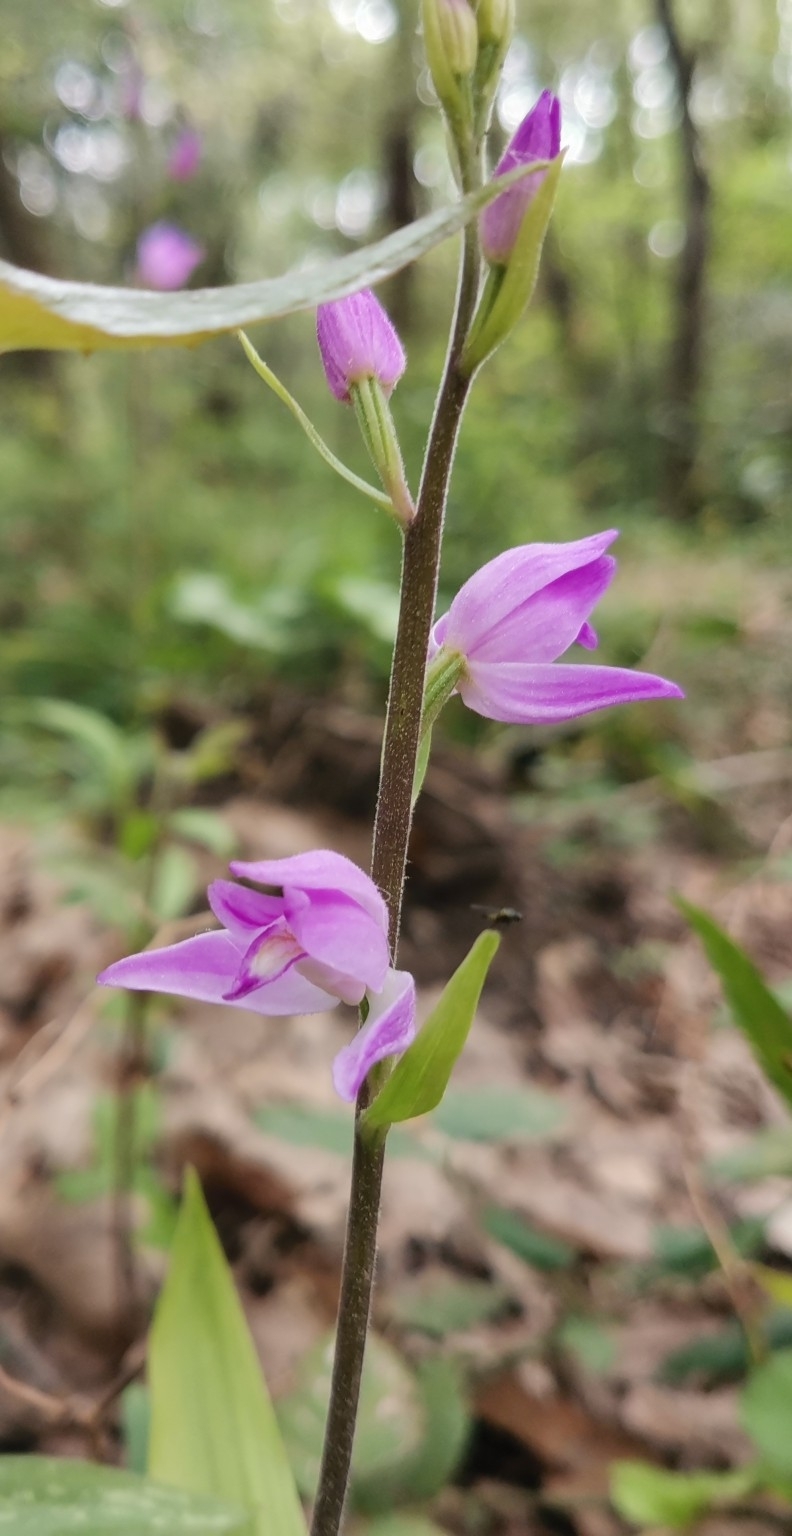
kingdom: Plantae
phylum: Tracheophyta
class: Liliopsida
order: Asparagales
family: Orchidaceae
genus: Cephalanthera
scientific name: Cephalanthera rubra
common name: Red helleborine
